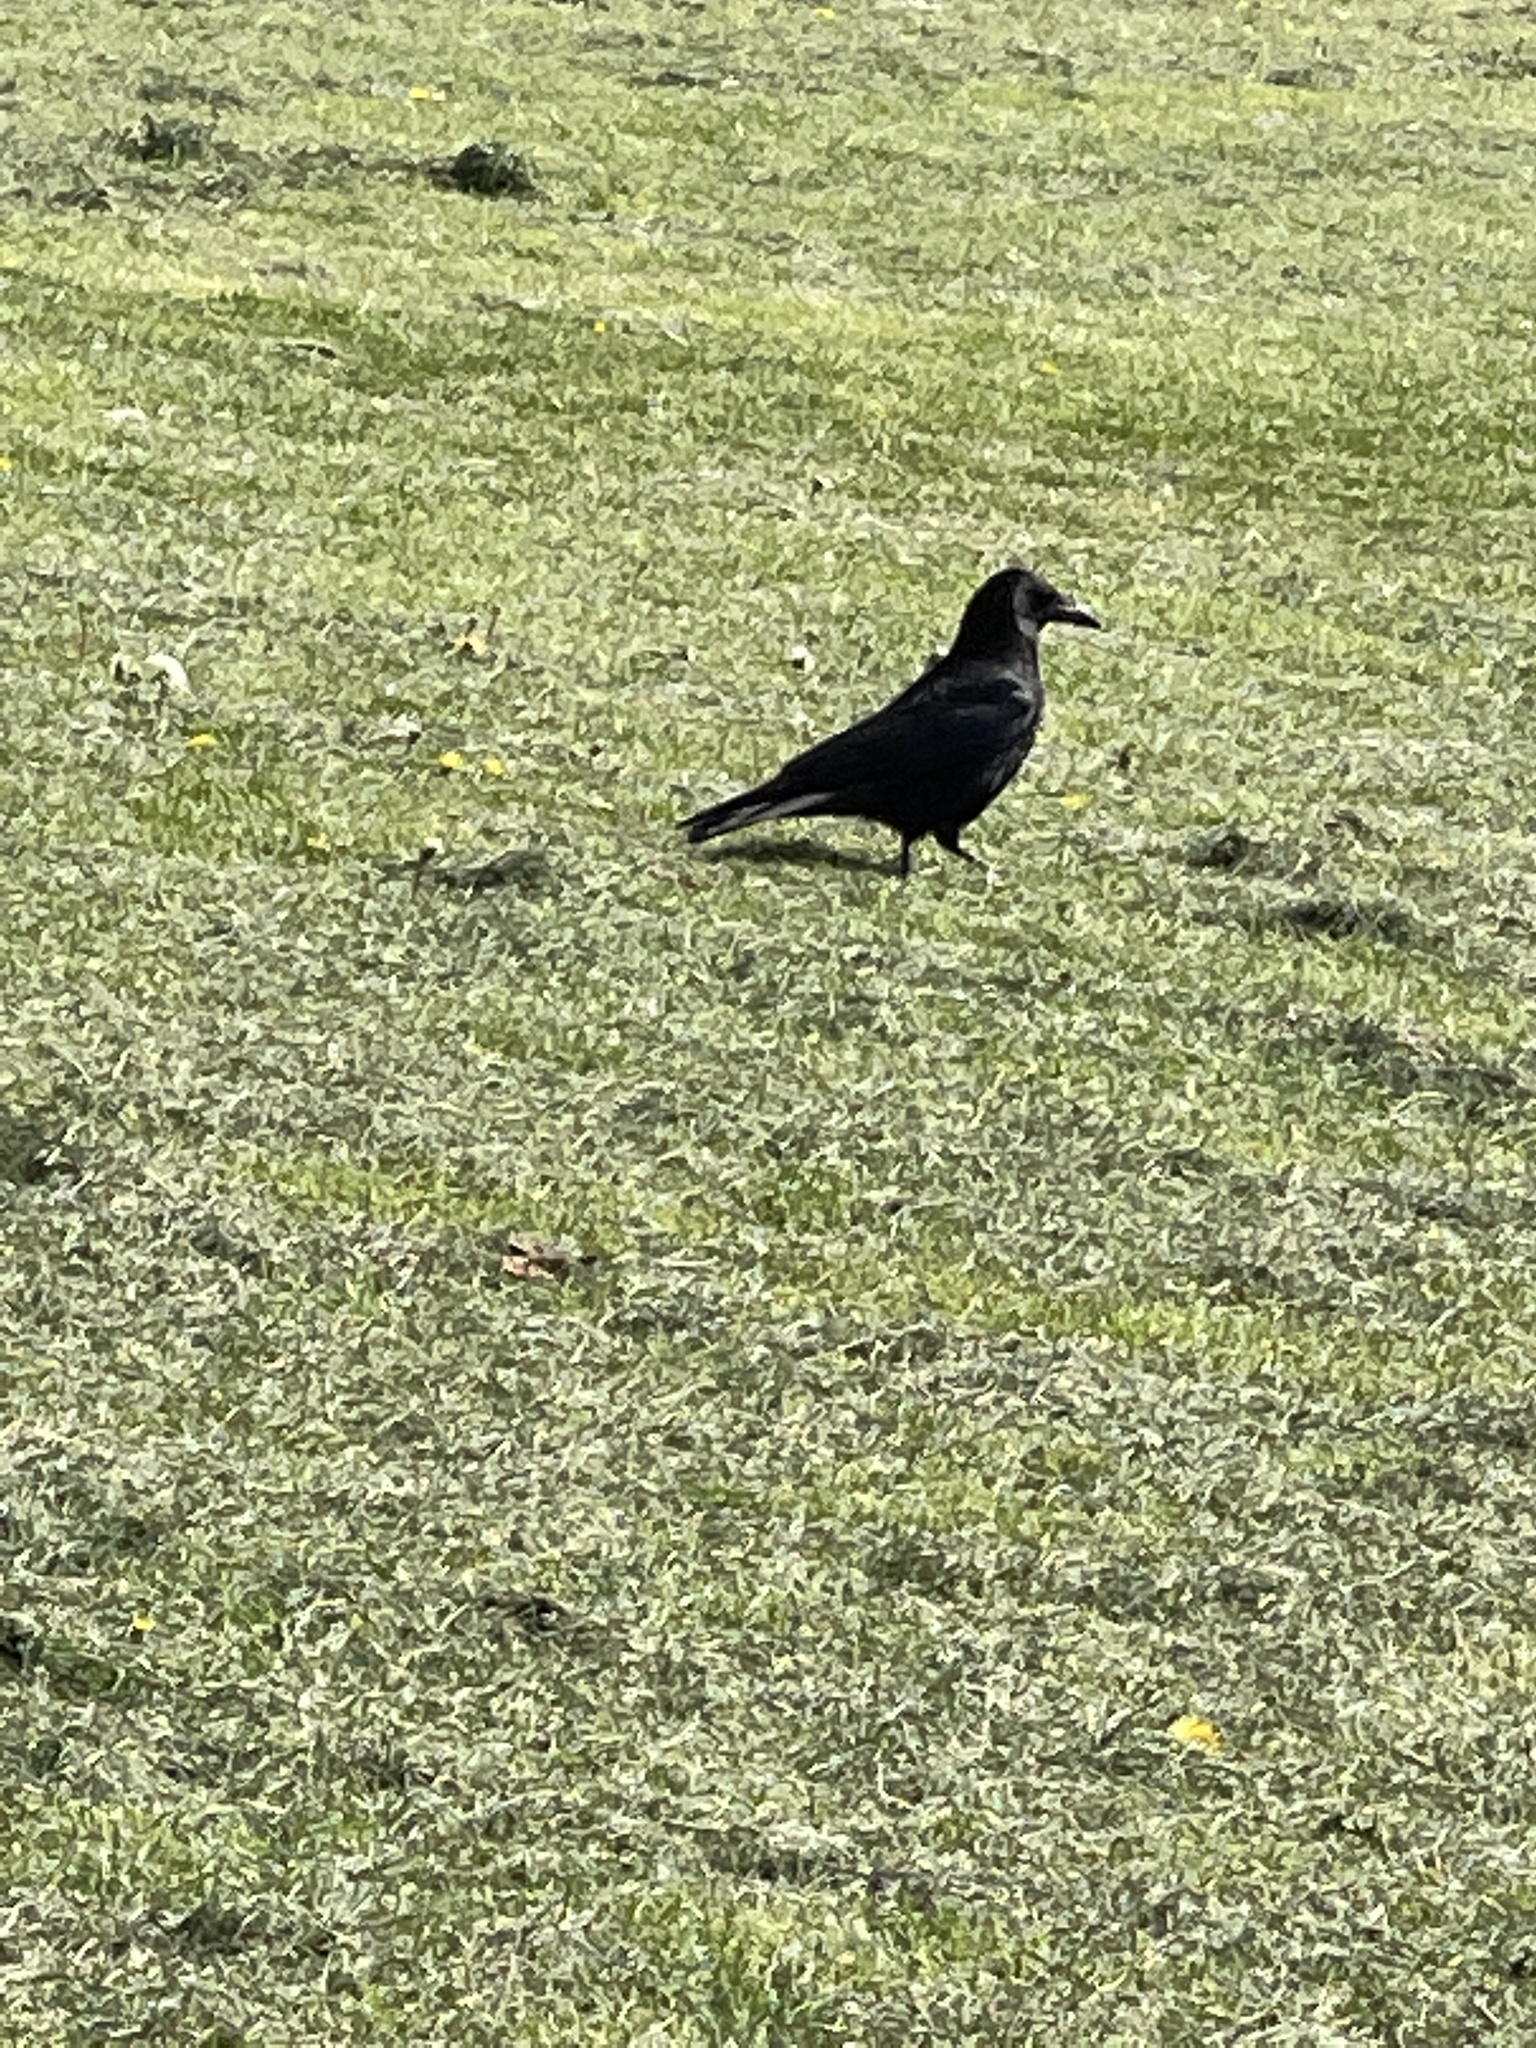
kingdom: Animalia
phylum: Chordata
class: Aves
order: Passeriformes
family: Corvidae
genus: Corvus
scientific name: Corvus corone
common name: Carrion crow
